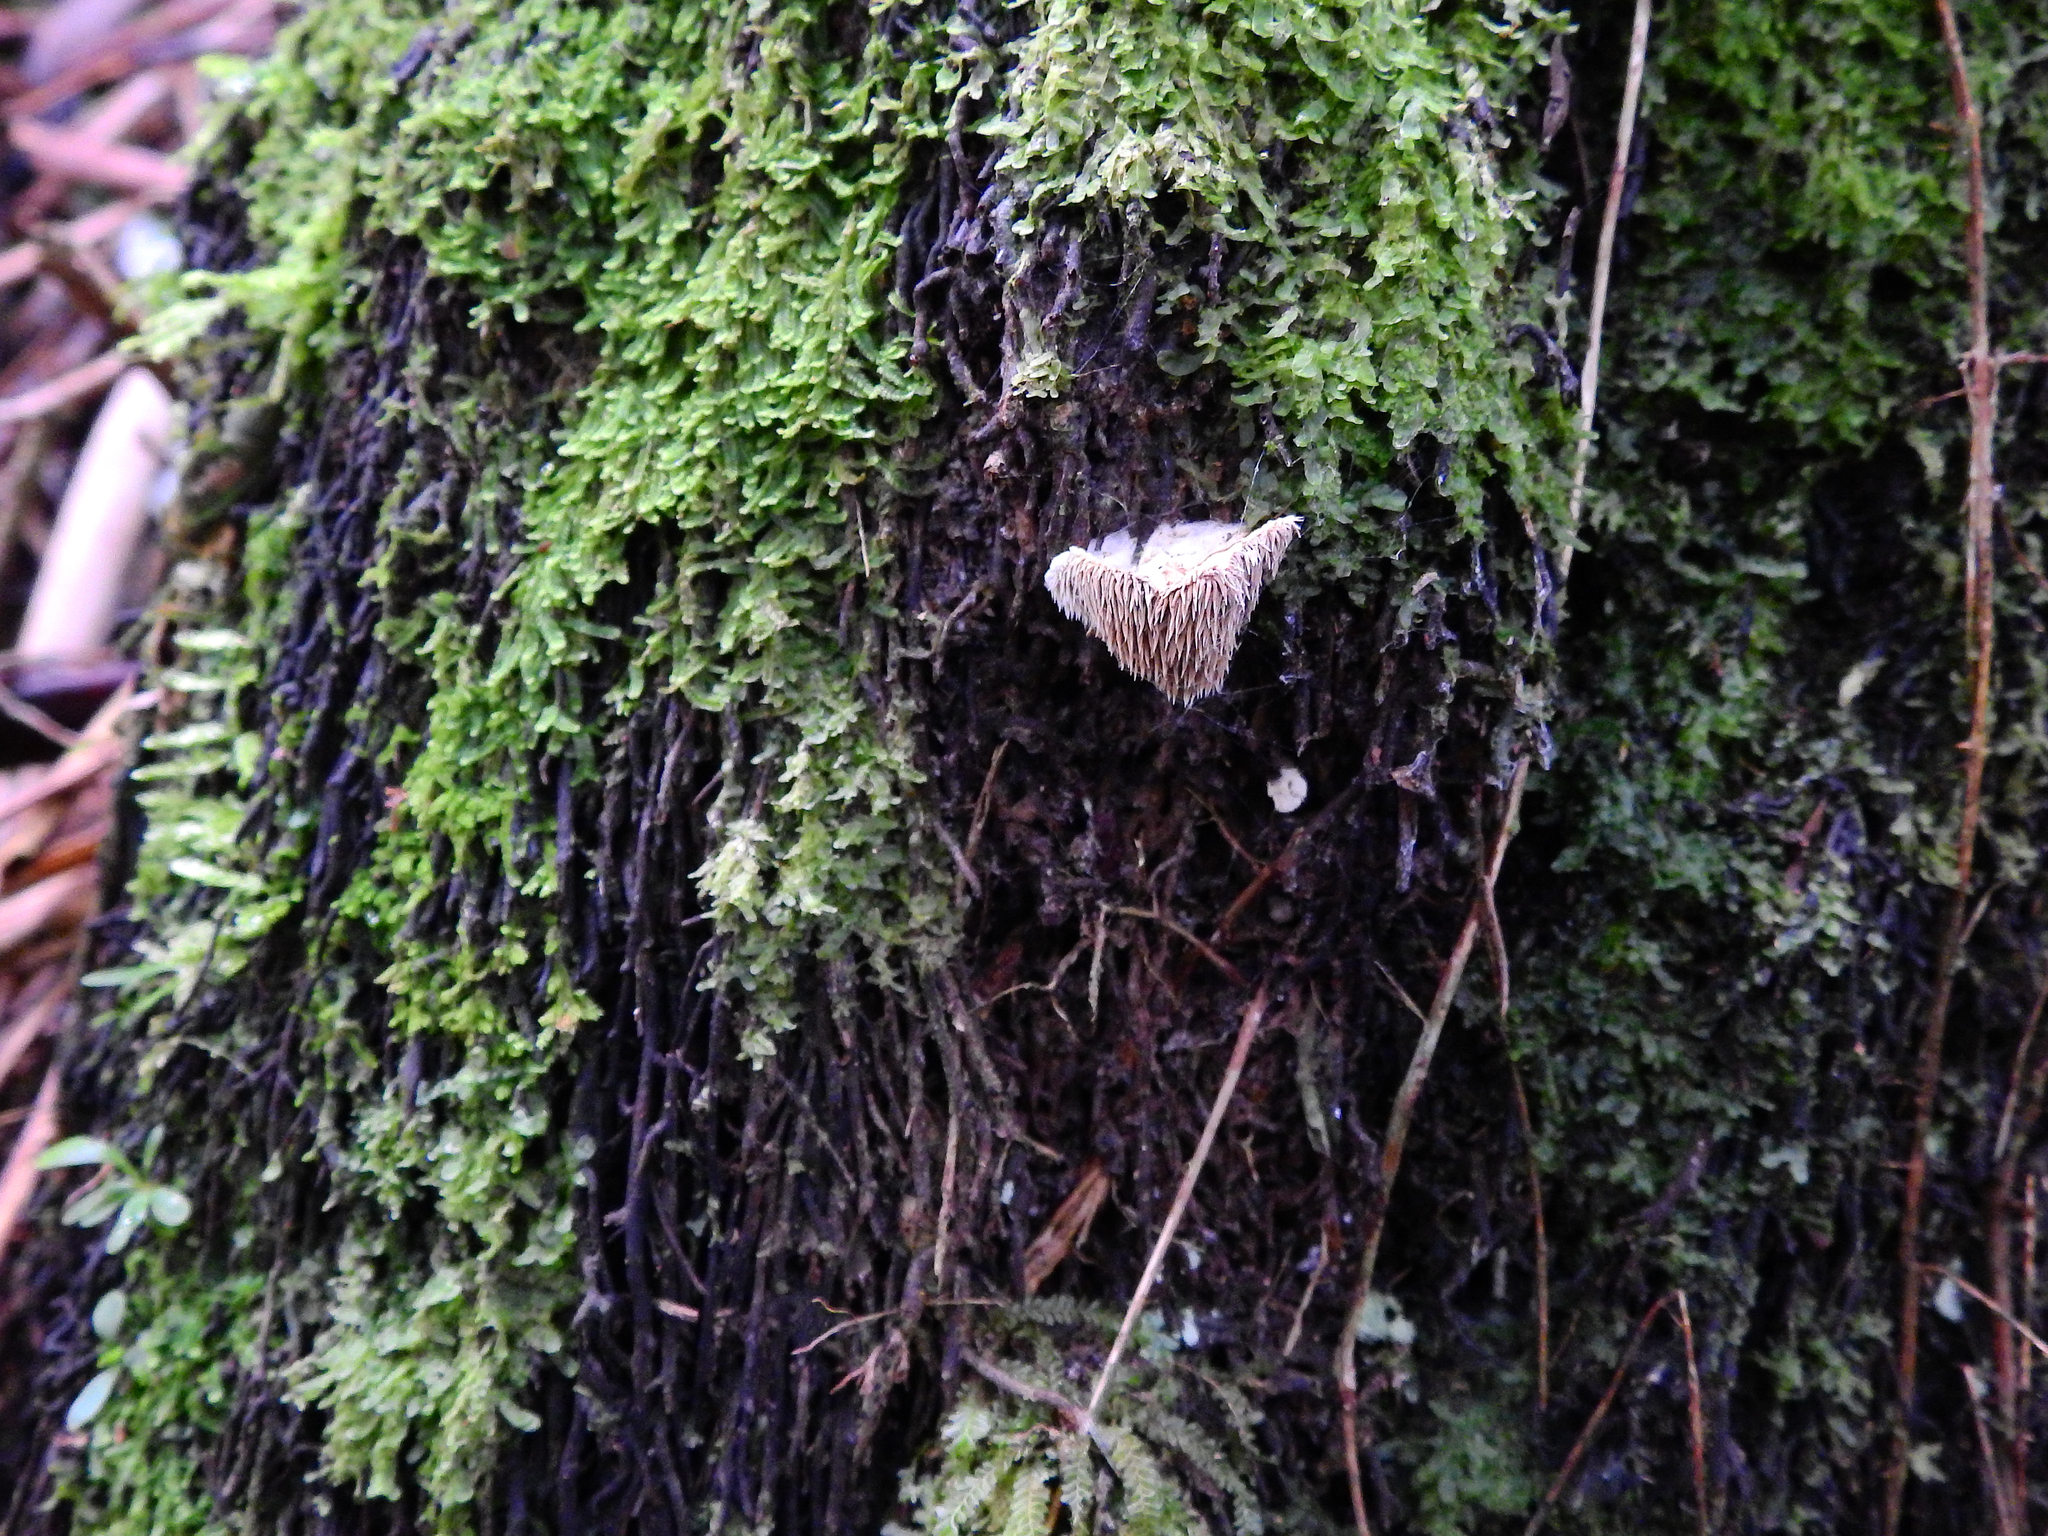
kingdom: Fungi
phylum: Basidiomycota
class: Agaricomycetes
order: Gomphales
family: Clavariadelphaceae
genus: Beenakia
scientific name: Beenakia dacostae
